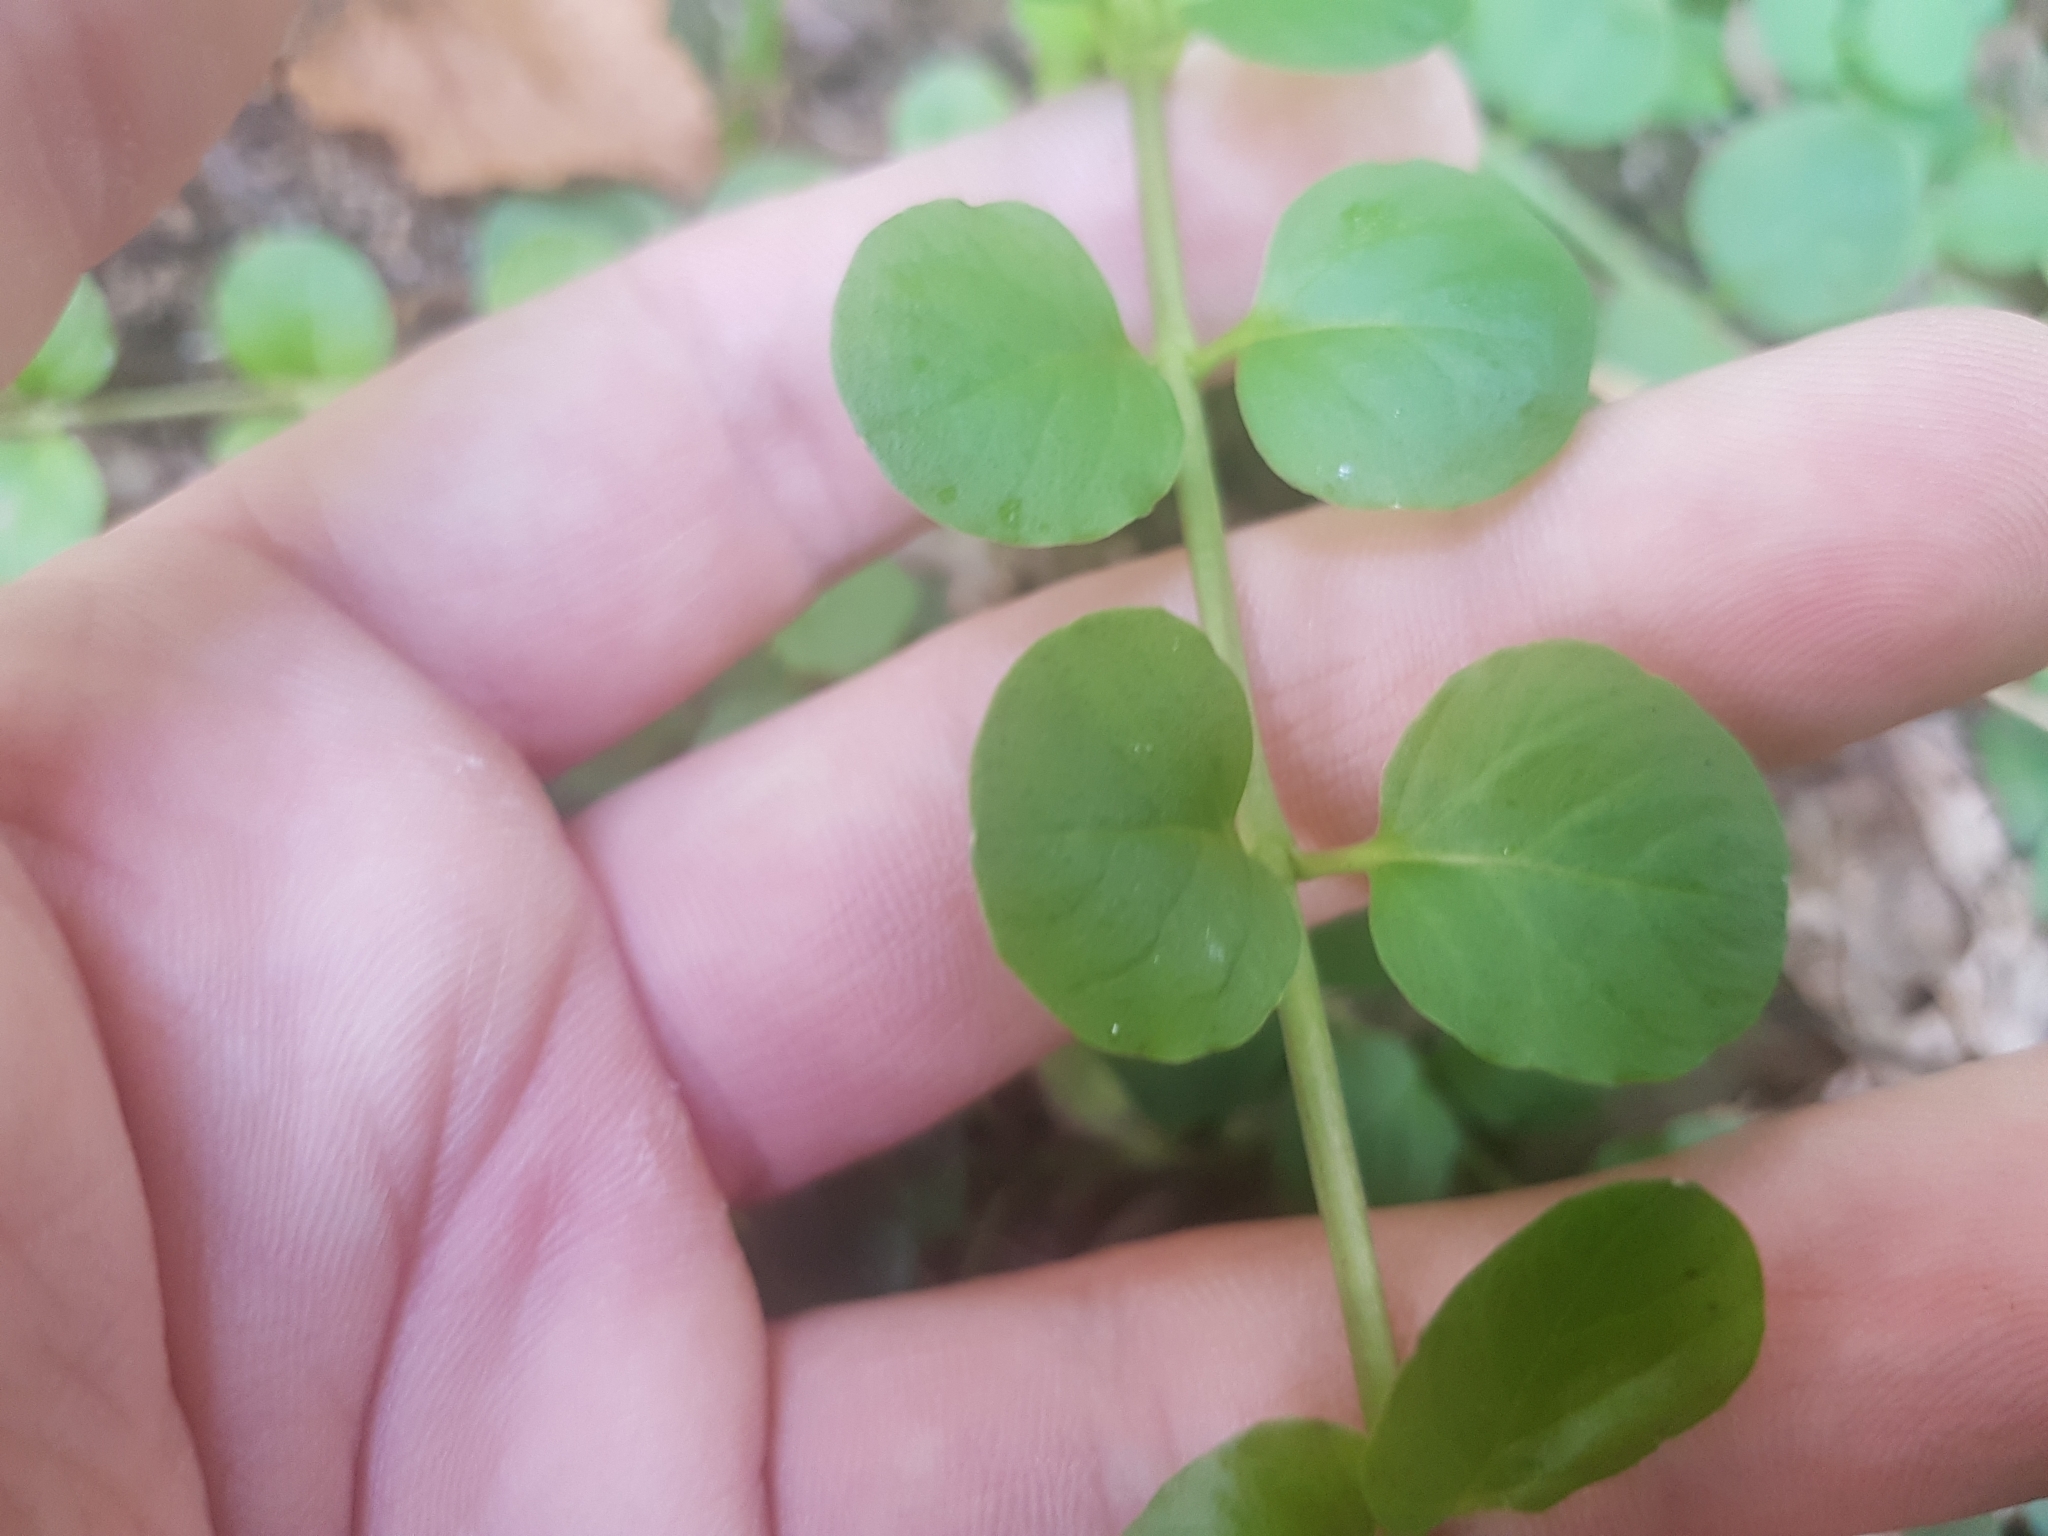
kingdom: Plantae
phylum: Tracheophyta
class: Magnoliopsida
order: Ericales
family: Primulaceae
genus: Lysimachia
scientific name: Lysimachia nummularia
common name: Moneywort
